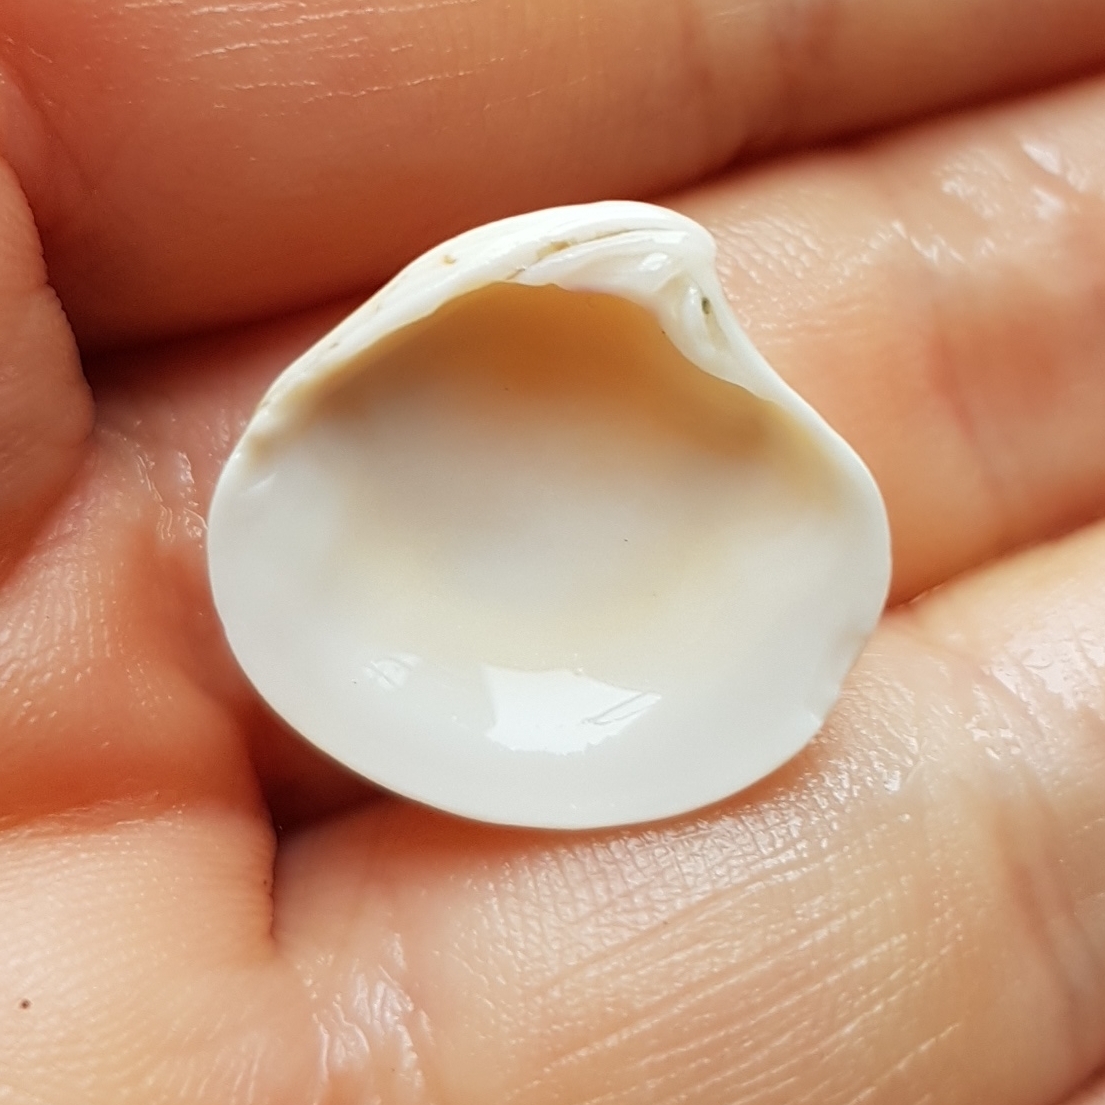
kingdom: Animalia
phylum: Mollusca
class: Bivalvia
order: Venerida
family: Veneridae
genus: Clausinella
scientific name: Clausinella fasciata
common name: Banded venus
